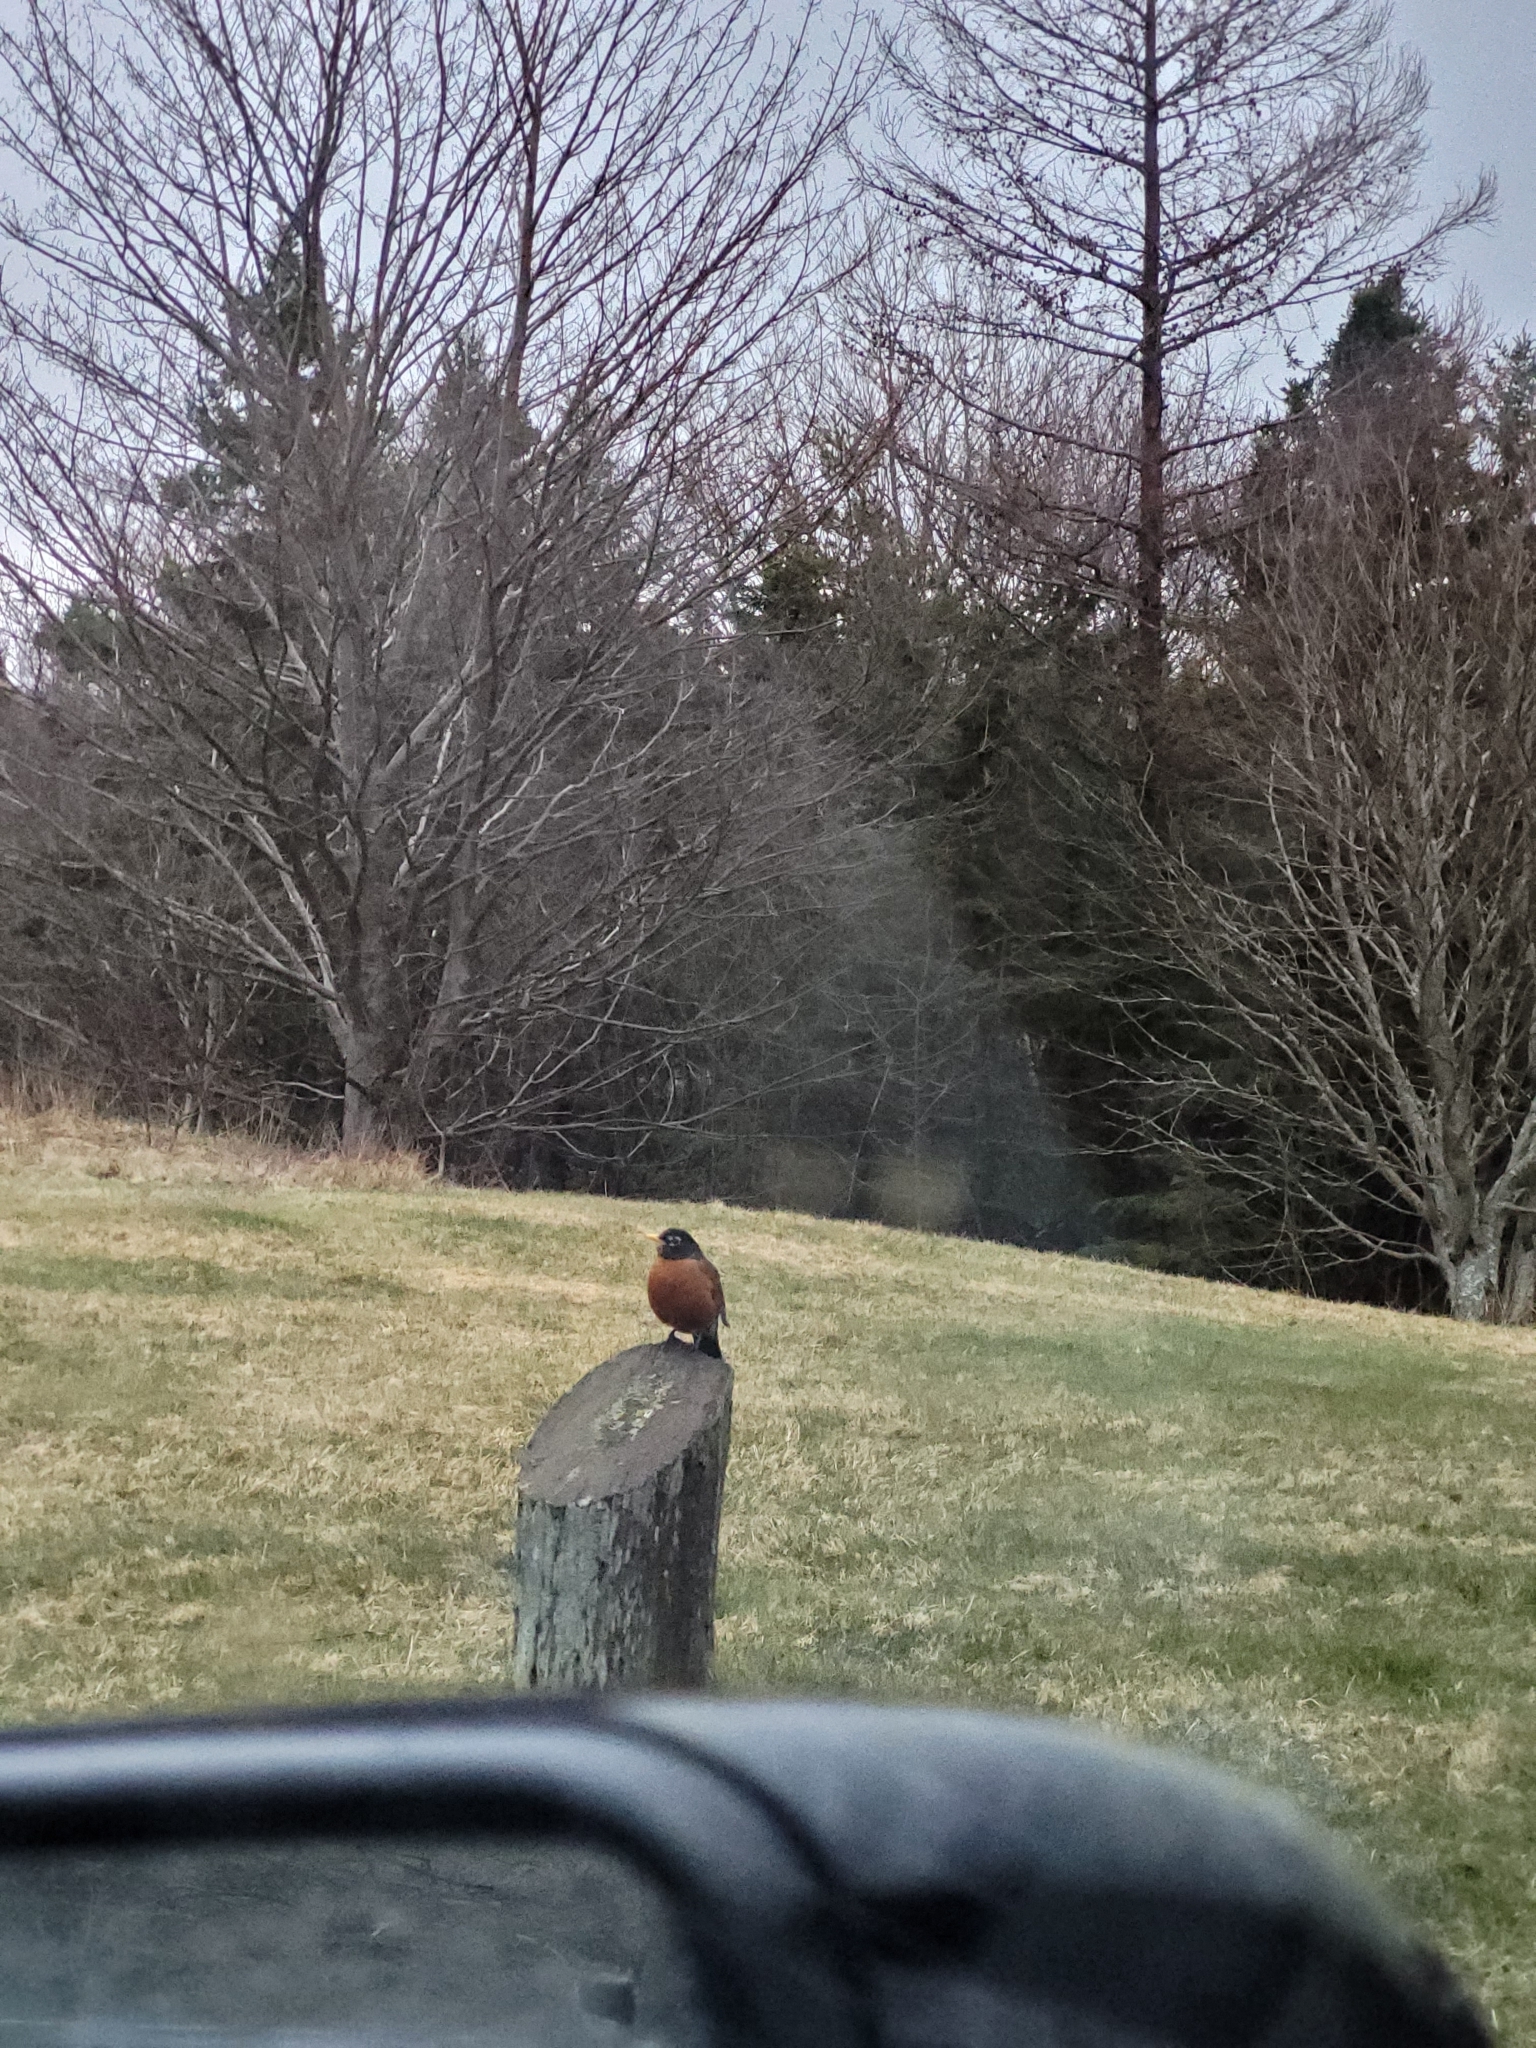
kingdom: Animalia
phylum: Chordata
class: Aves
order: Passeriformes
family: Turdidae
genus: Turdus
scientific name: Turdus migratorius
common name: American robin
